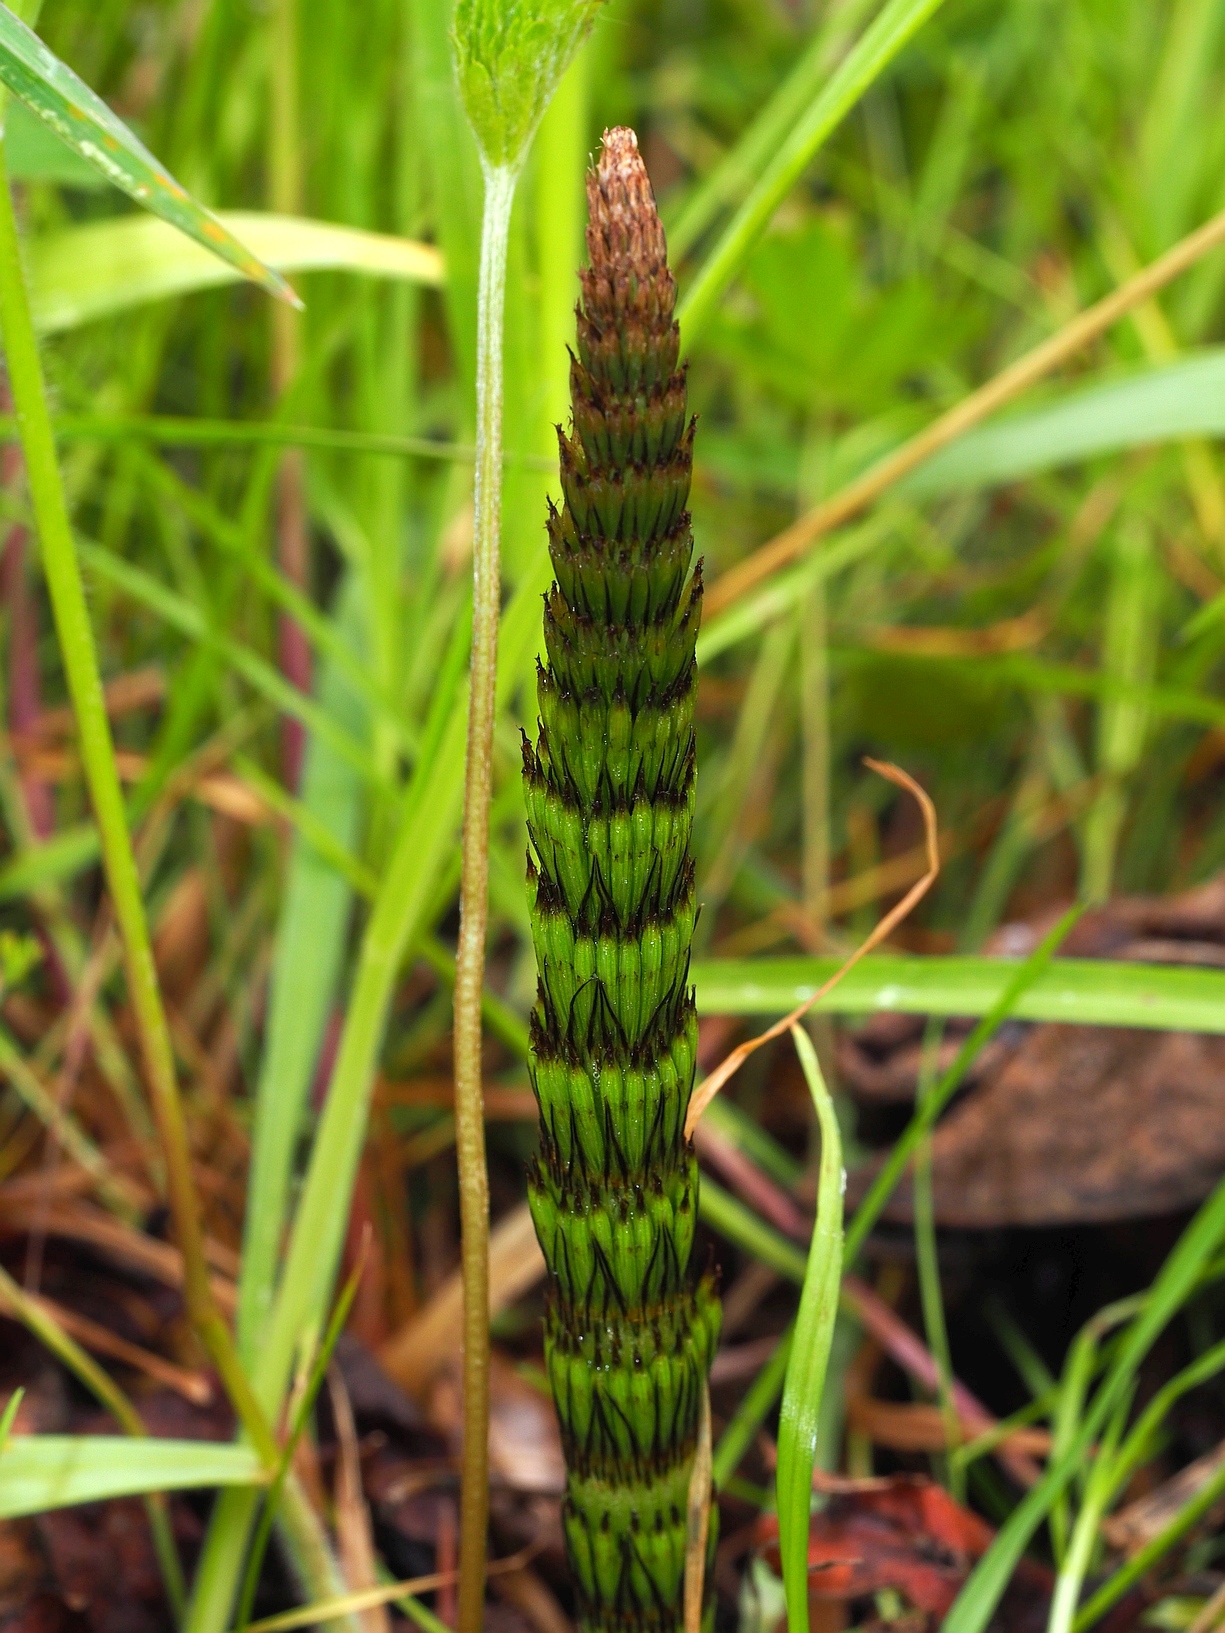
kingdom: Plantae
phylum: Tracheophyta
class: Polypodiopsida
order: Equisetales
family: Equisetaceae
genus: Equisetum
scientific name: Equisetum telmateia
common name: Great horsetail
